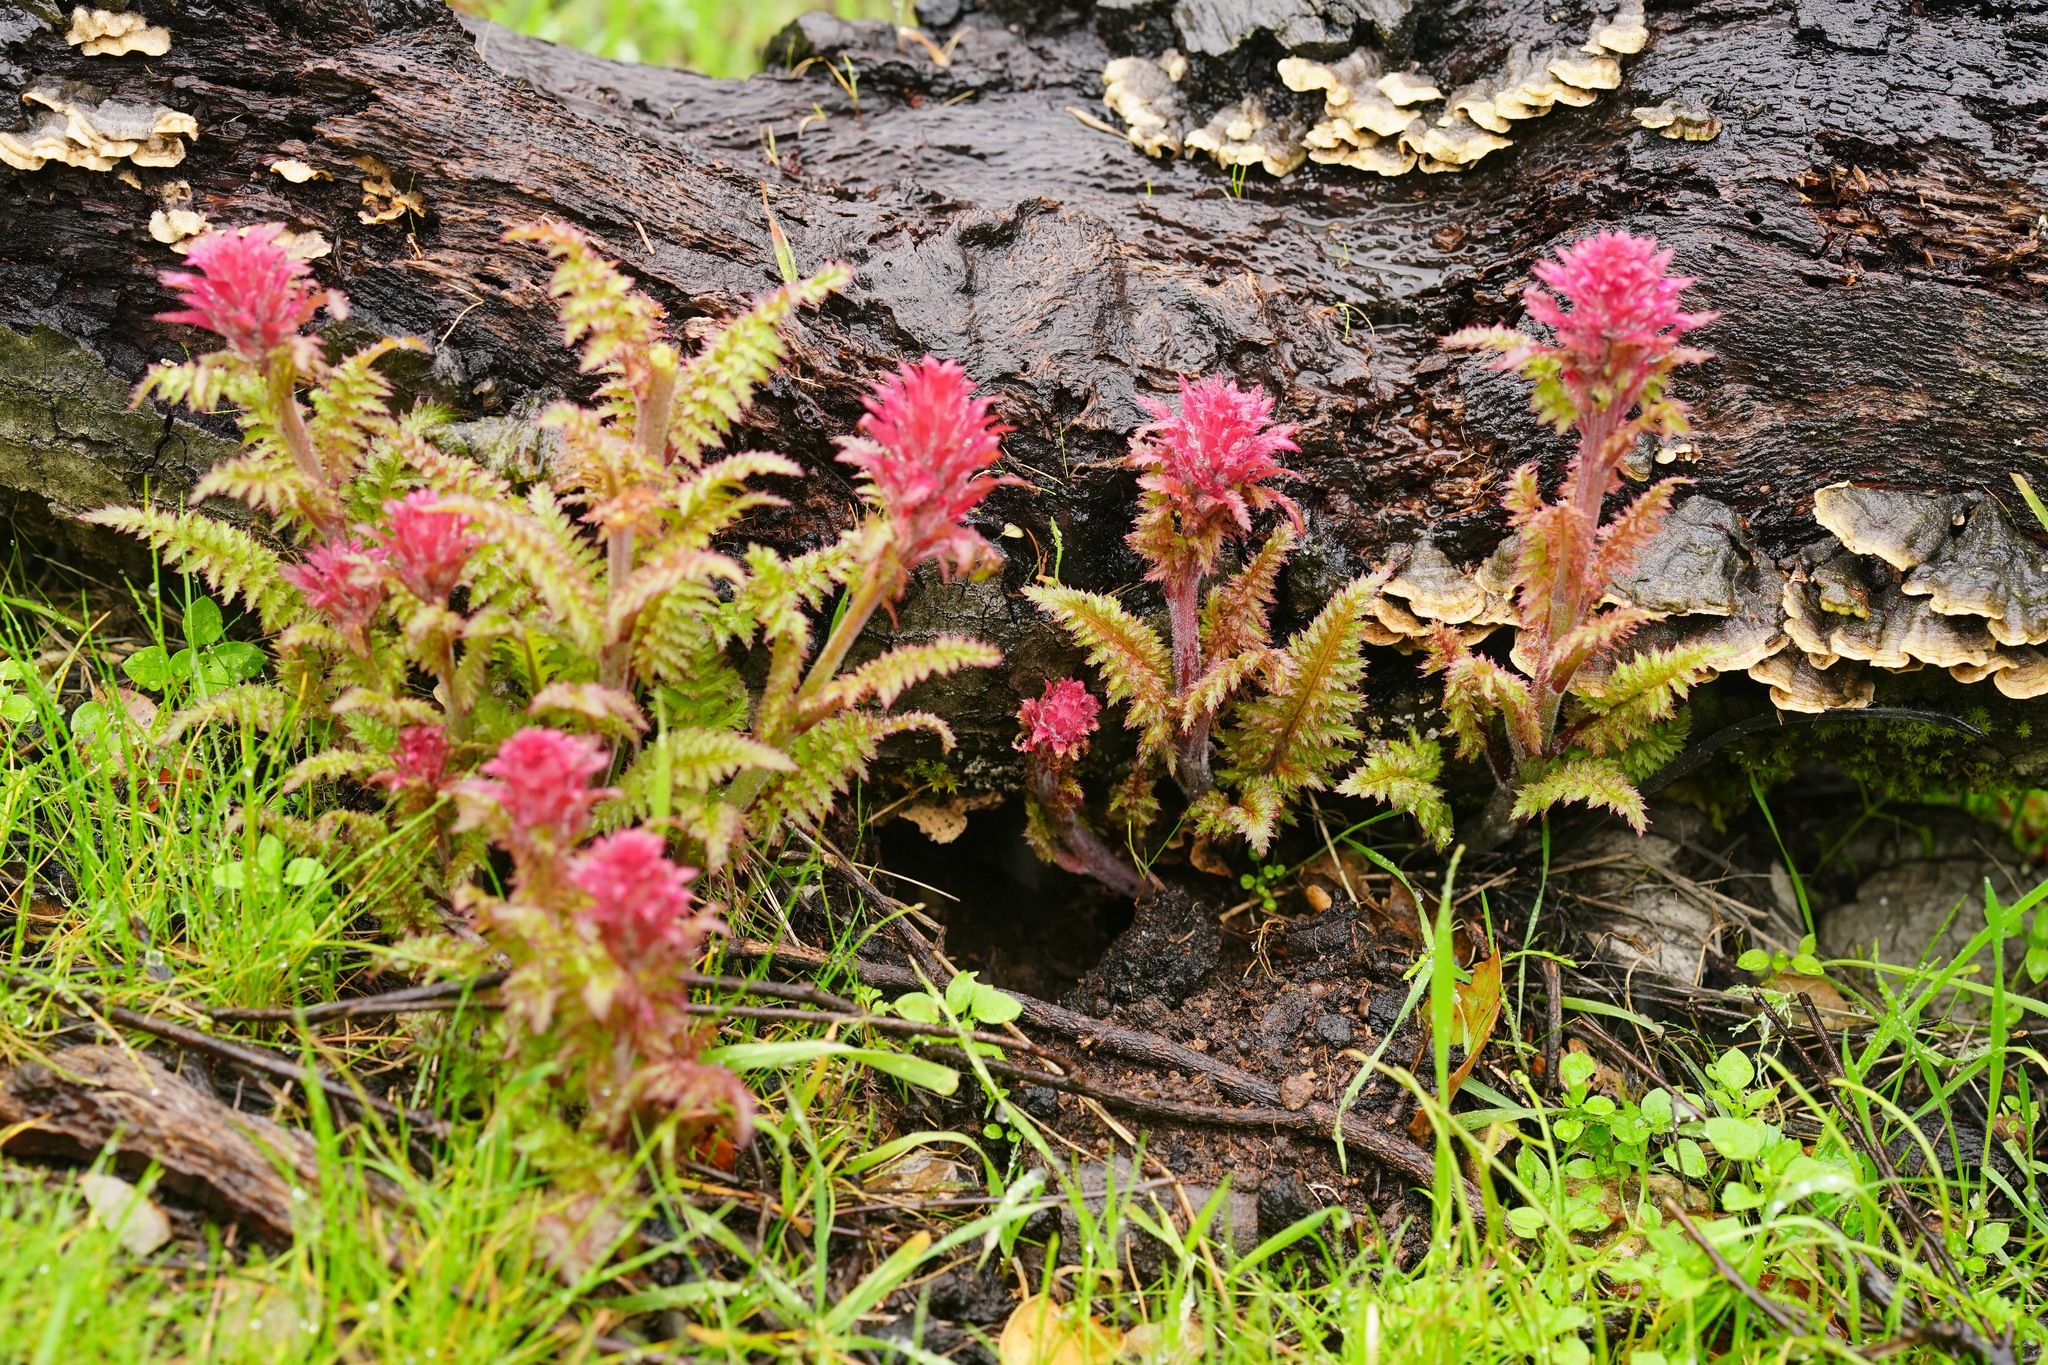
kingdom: Plantae
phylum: Tracheophyta
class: Magnoliopsida
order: Lamiales
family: Orobanchaceae
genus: Pedicularis
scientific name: Pedicularis densiflora
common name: Indian warrior
